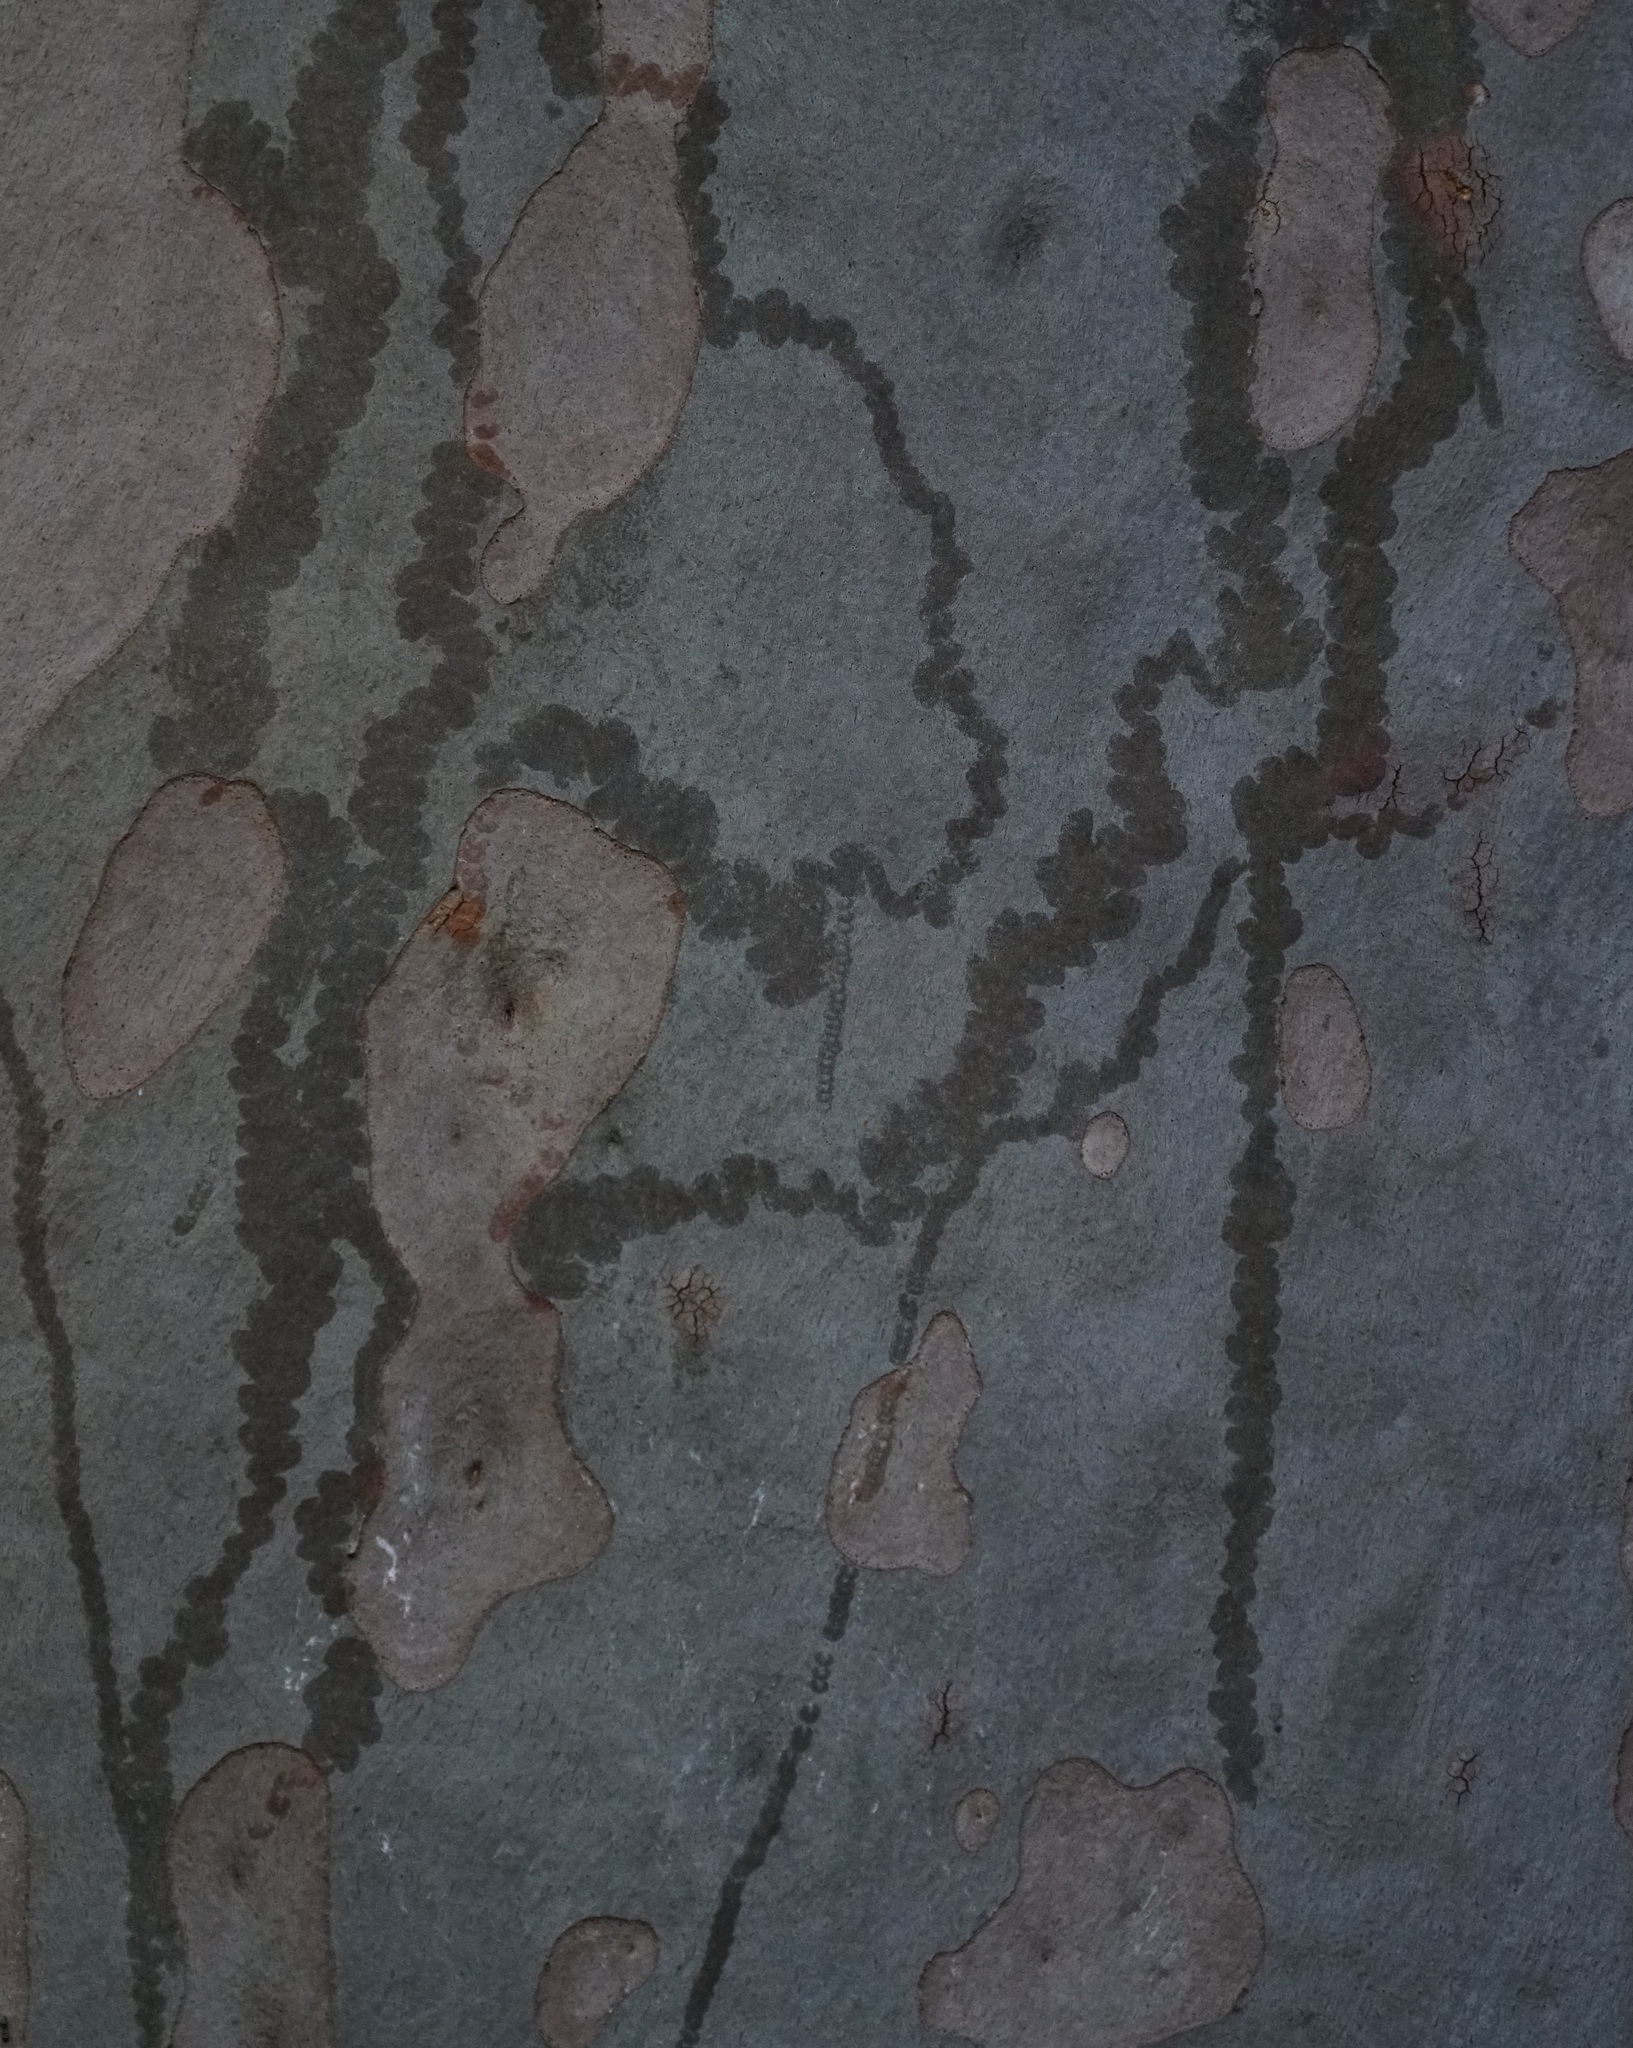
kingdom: Animalia
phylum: Mollusca
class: Gastropoda
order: Stylommatophora
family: Athoracophoridae
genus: Triboniophorus
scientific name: Triboniophorus graeffei
